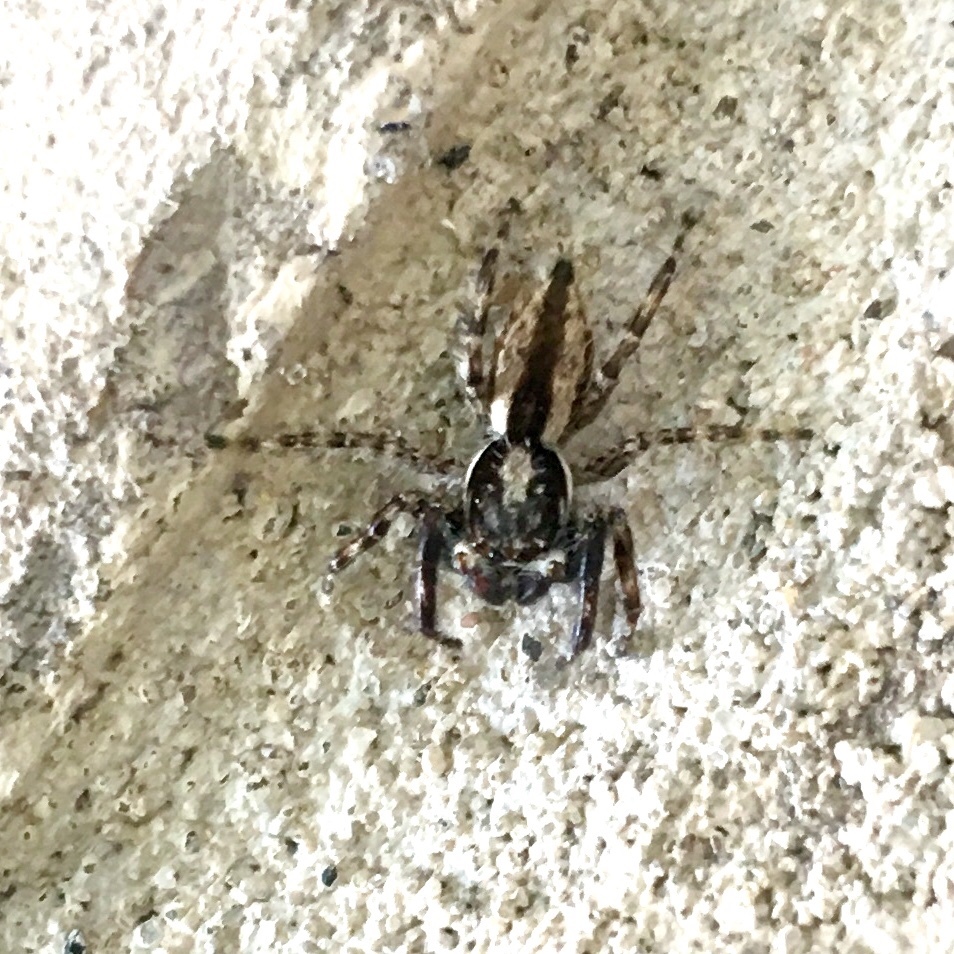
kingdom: Animalia
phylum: Arthropoda
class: Arachnida
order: Araneae
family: Salticidae
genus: Menemerus
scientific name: Menemerus bivittatus
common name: Gray wall jumper
